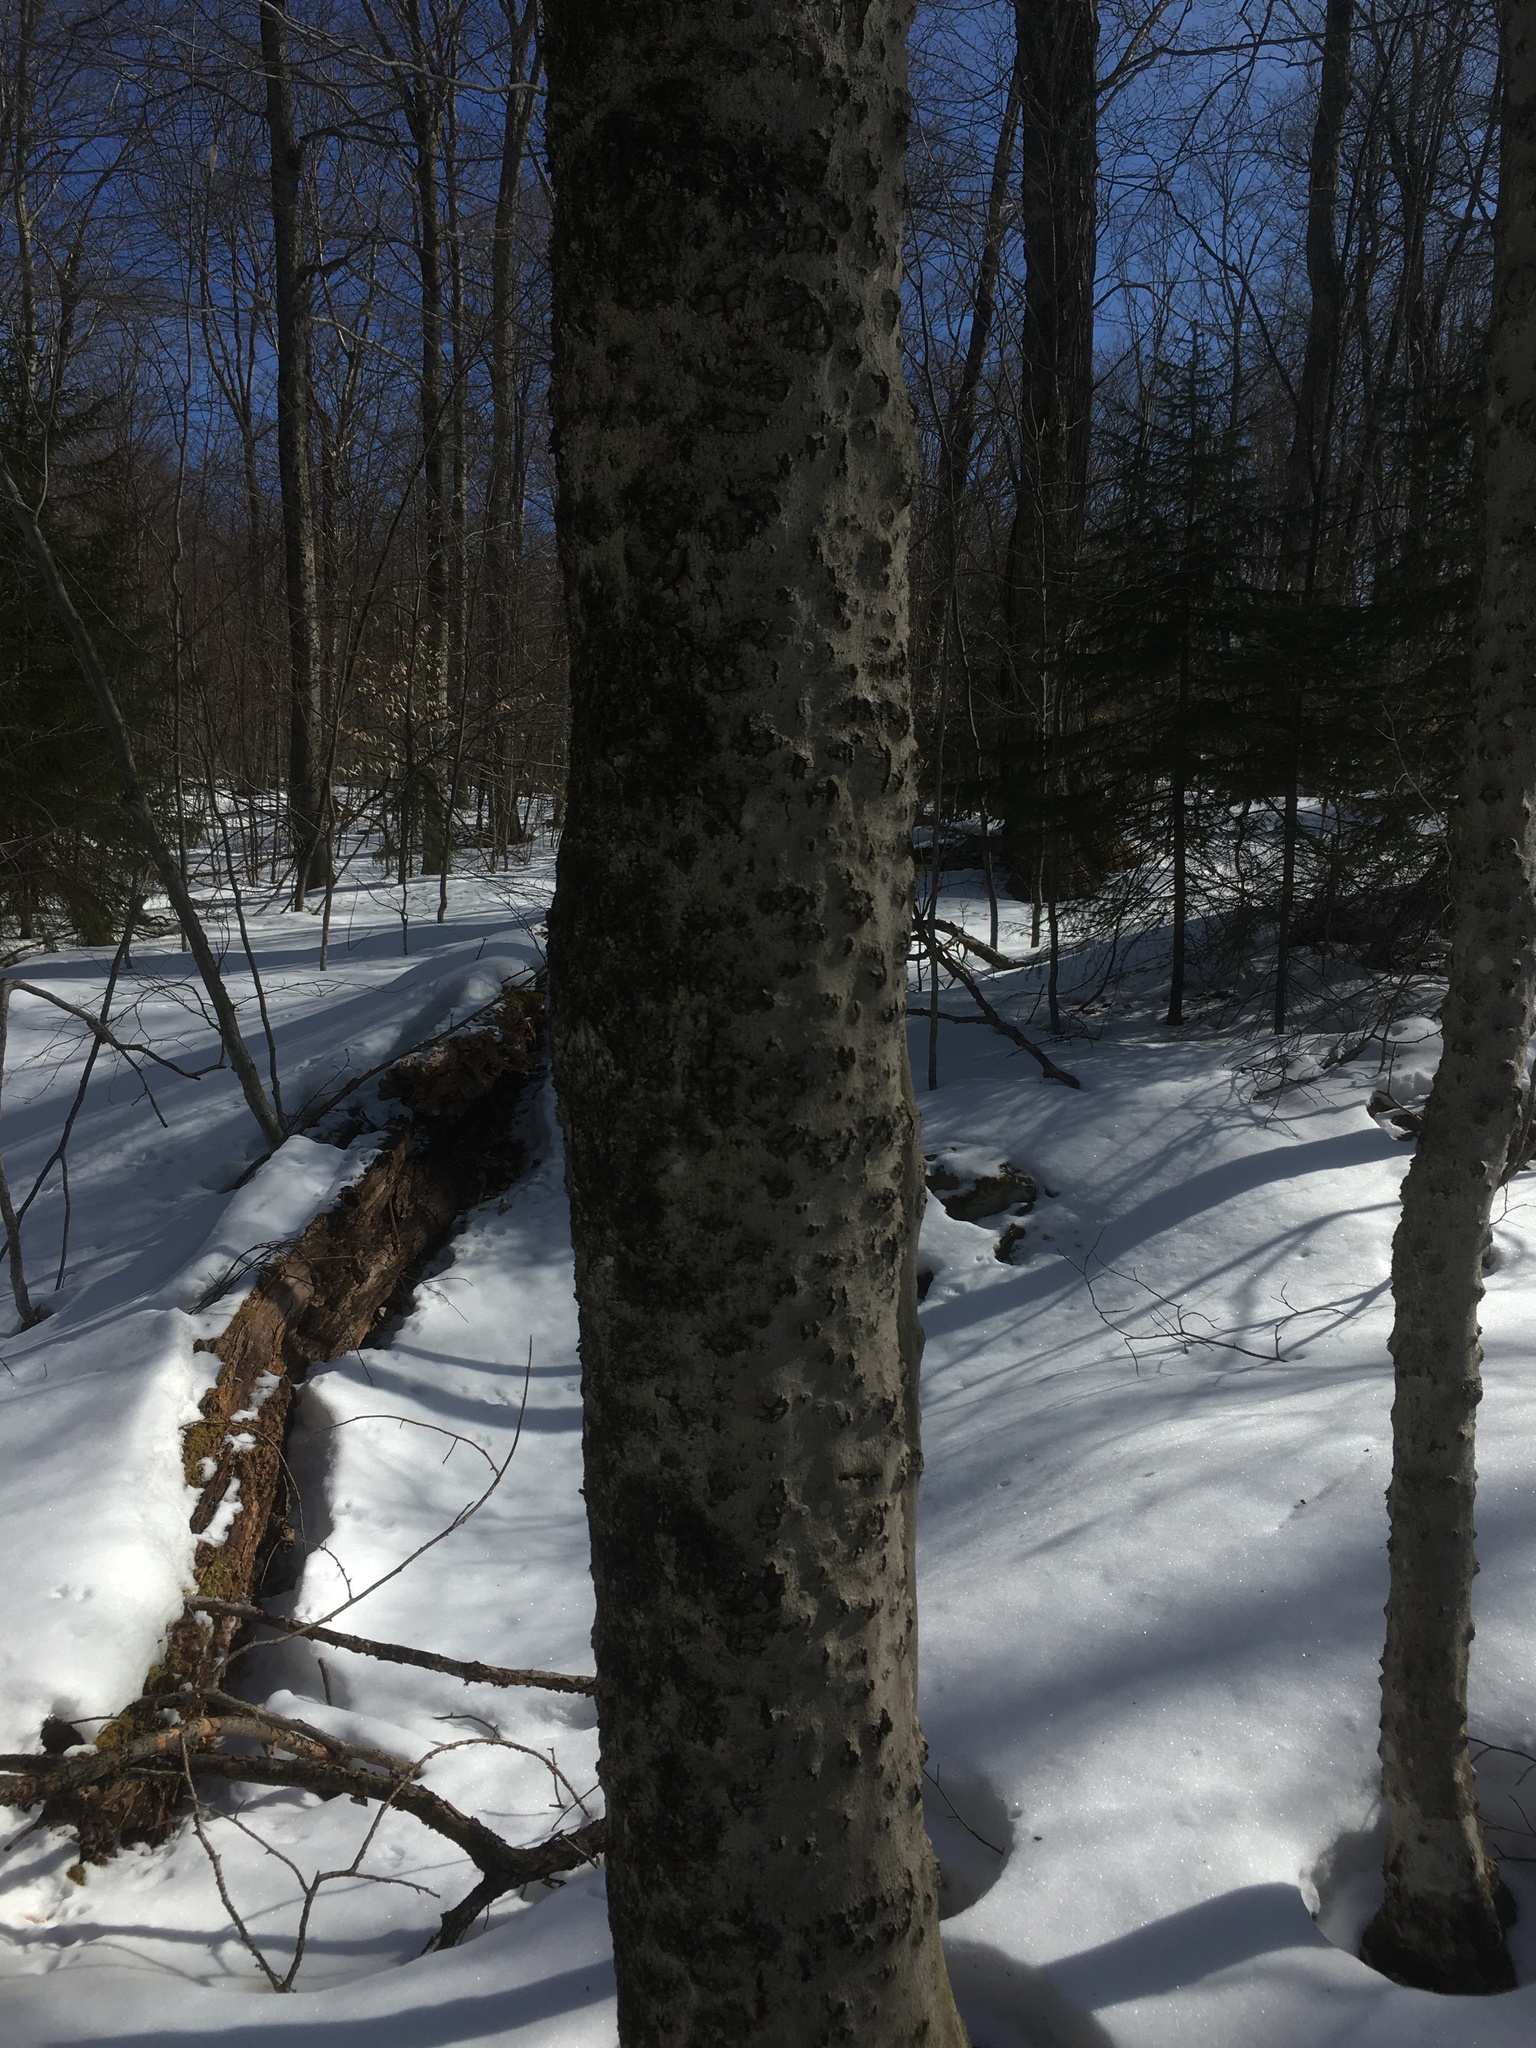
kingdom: Fungi
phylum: Ascomycota
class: Sordariomycetes
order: Hypocreales
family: Nectriaceae
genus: Neonectria
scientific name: Neonectria faginata
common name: Beech bark canker
